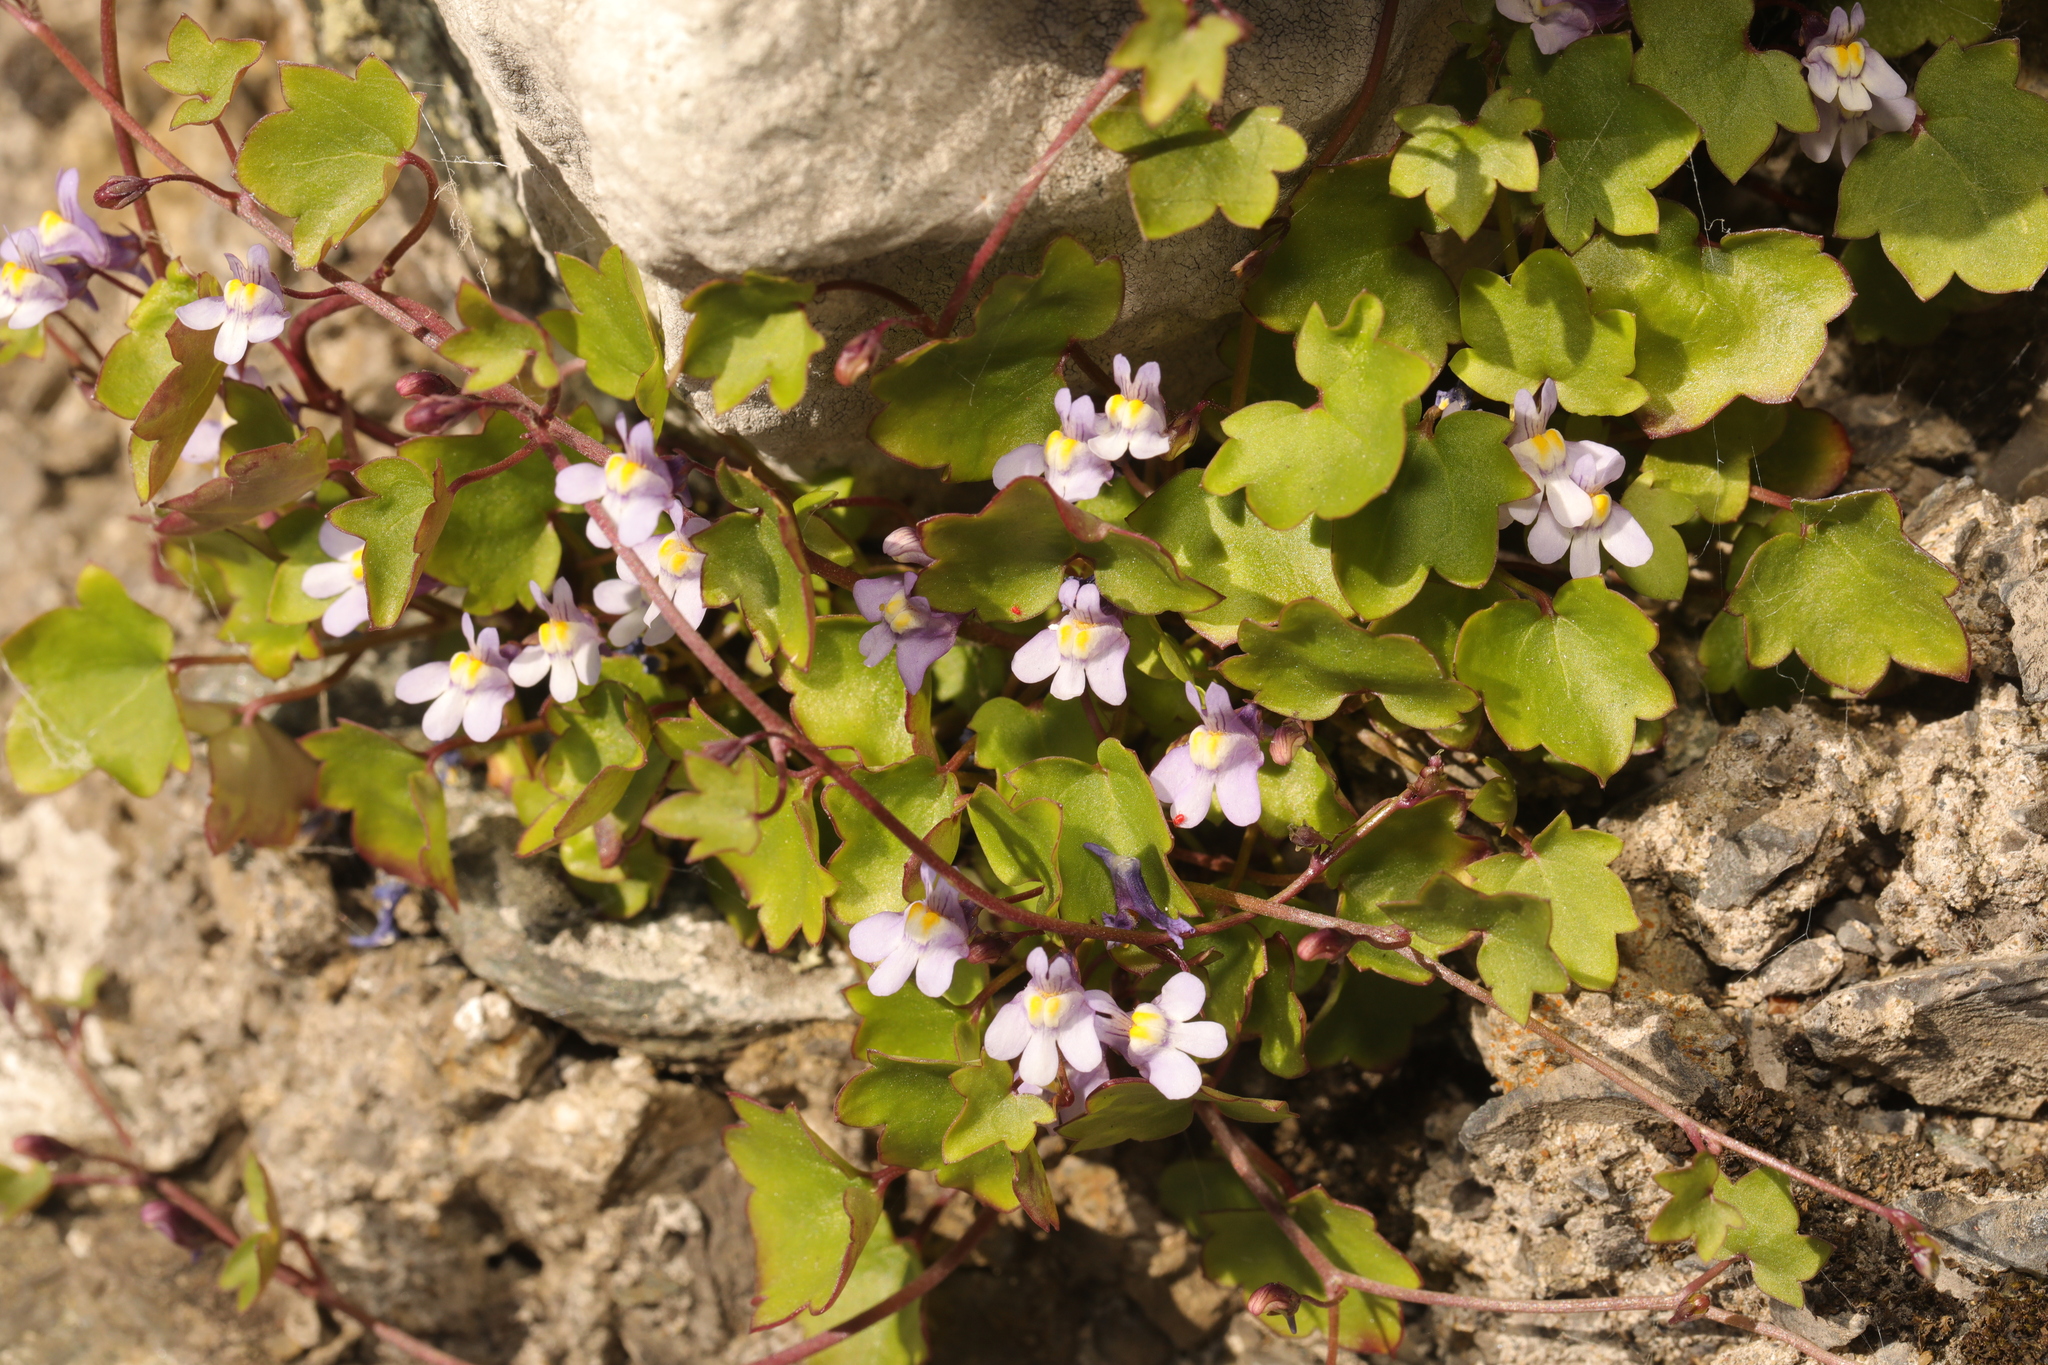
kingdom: Plantae
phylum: Tracheophyta
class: Magnoliopsida
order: Lamiales
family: Plantaginaceae
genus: Cymbalaria
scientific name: Cymbalaria muralis
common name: Ivy-leaved toadflax
